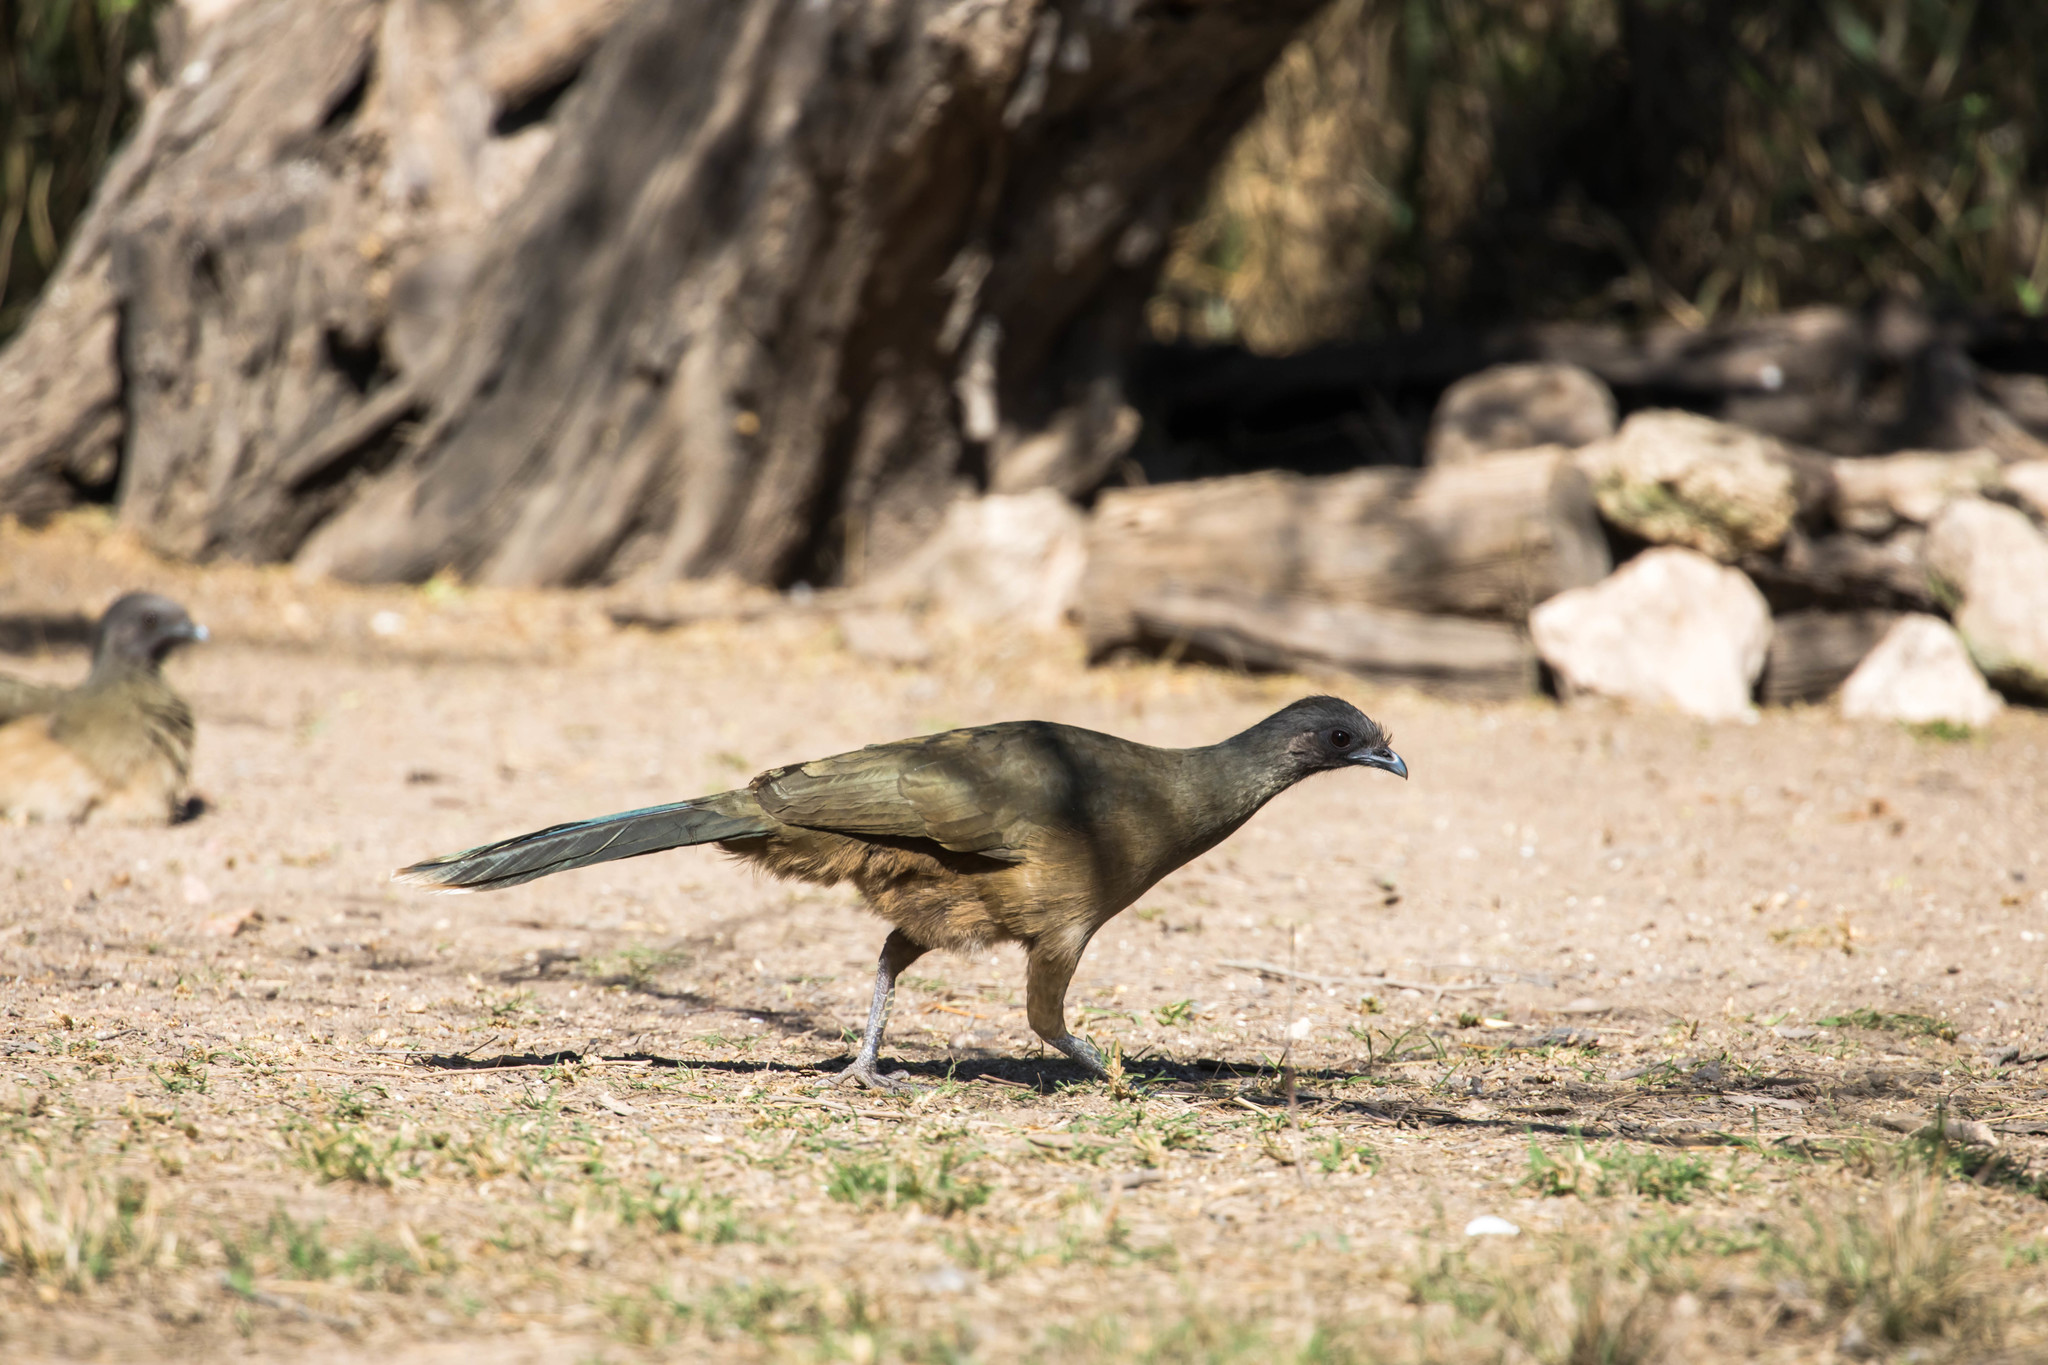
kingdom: Animalia
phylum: Chordata
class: Aves
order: Galliformes
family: Cracidae
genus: Ortalis
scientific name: Ortalis vetula
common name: Plain chachalaca
